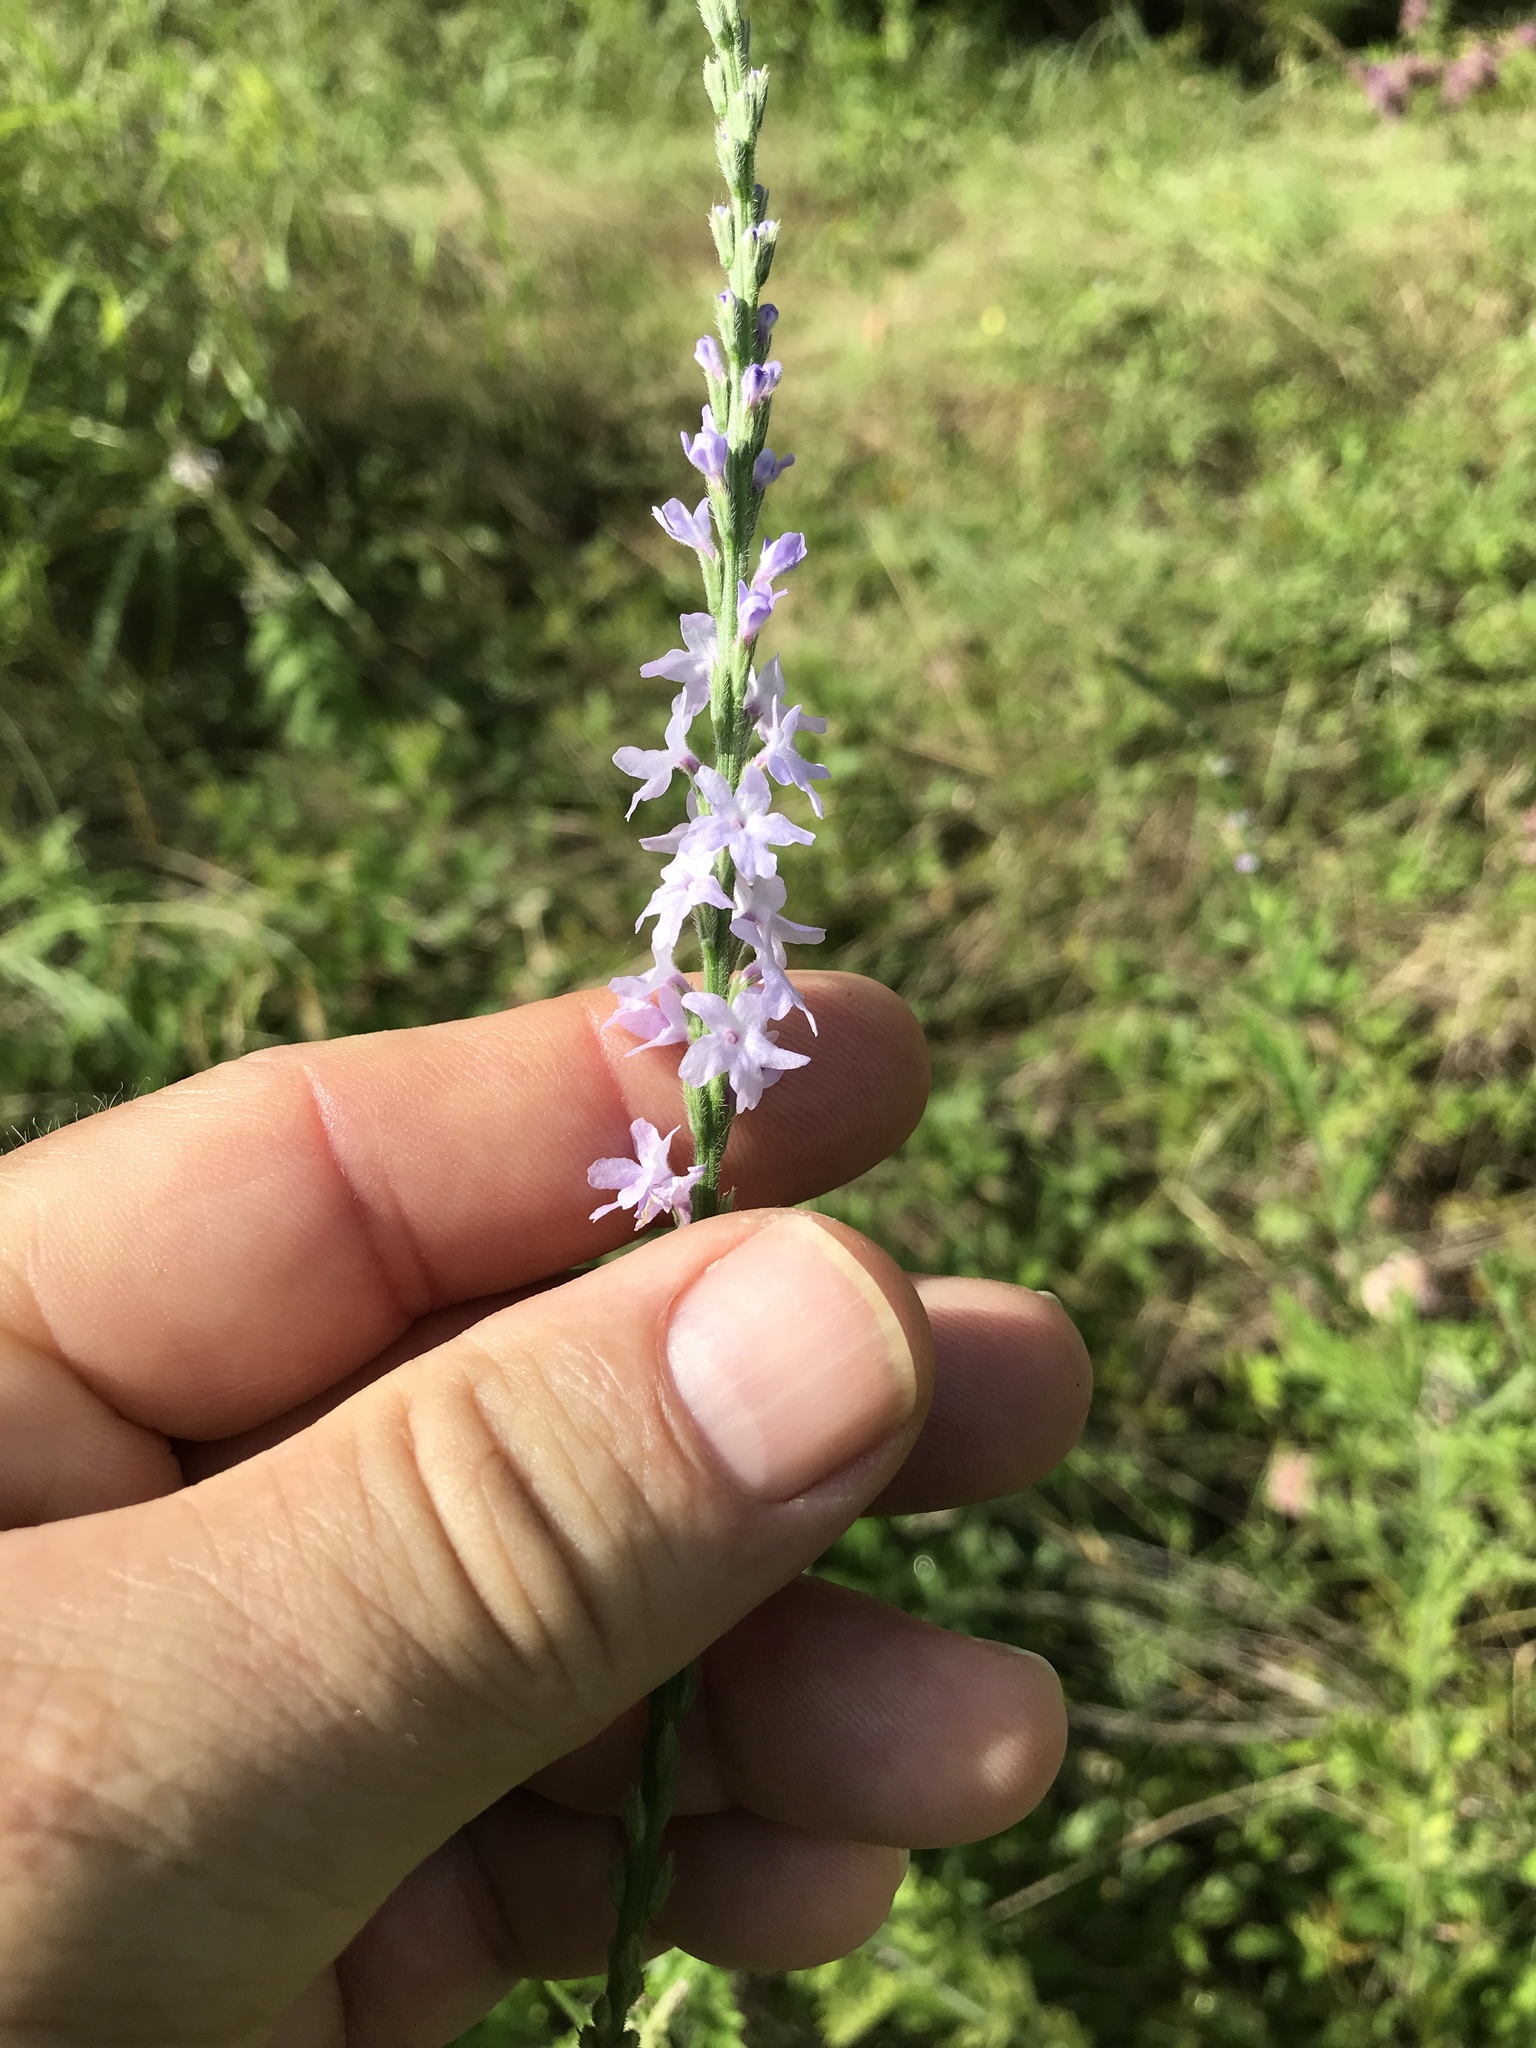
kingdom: Plantae
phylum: Tracheophyta
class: Magnoliopsida
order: Lamiales
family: Verbenaceae
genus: Verbena
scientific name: Verbena xutha
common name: Gulf vervain
